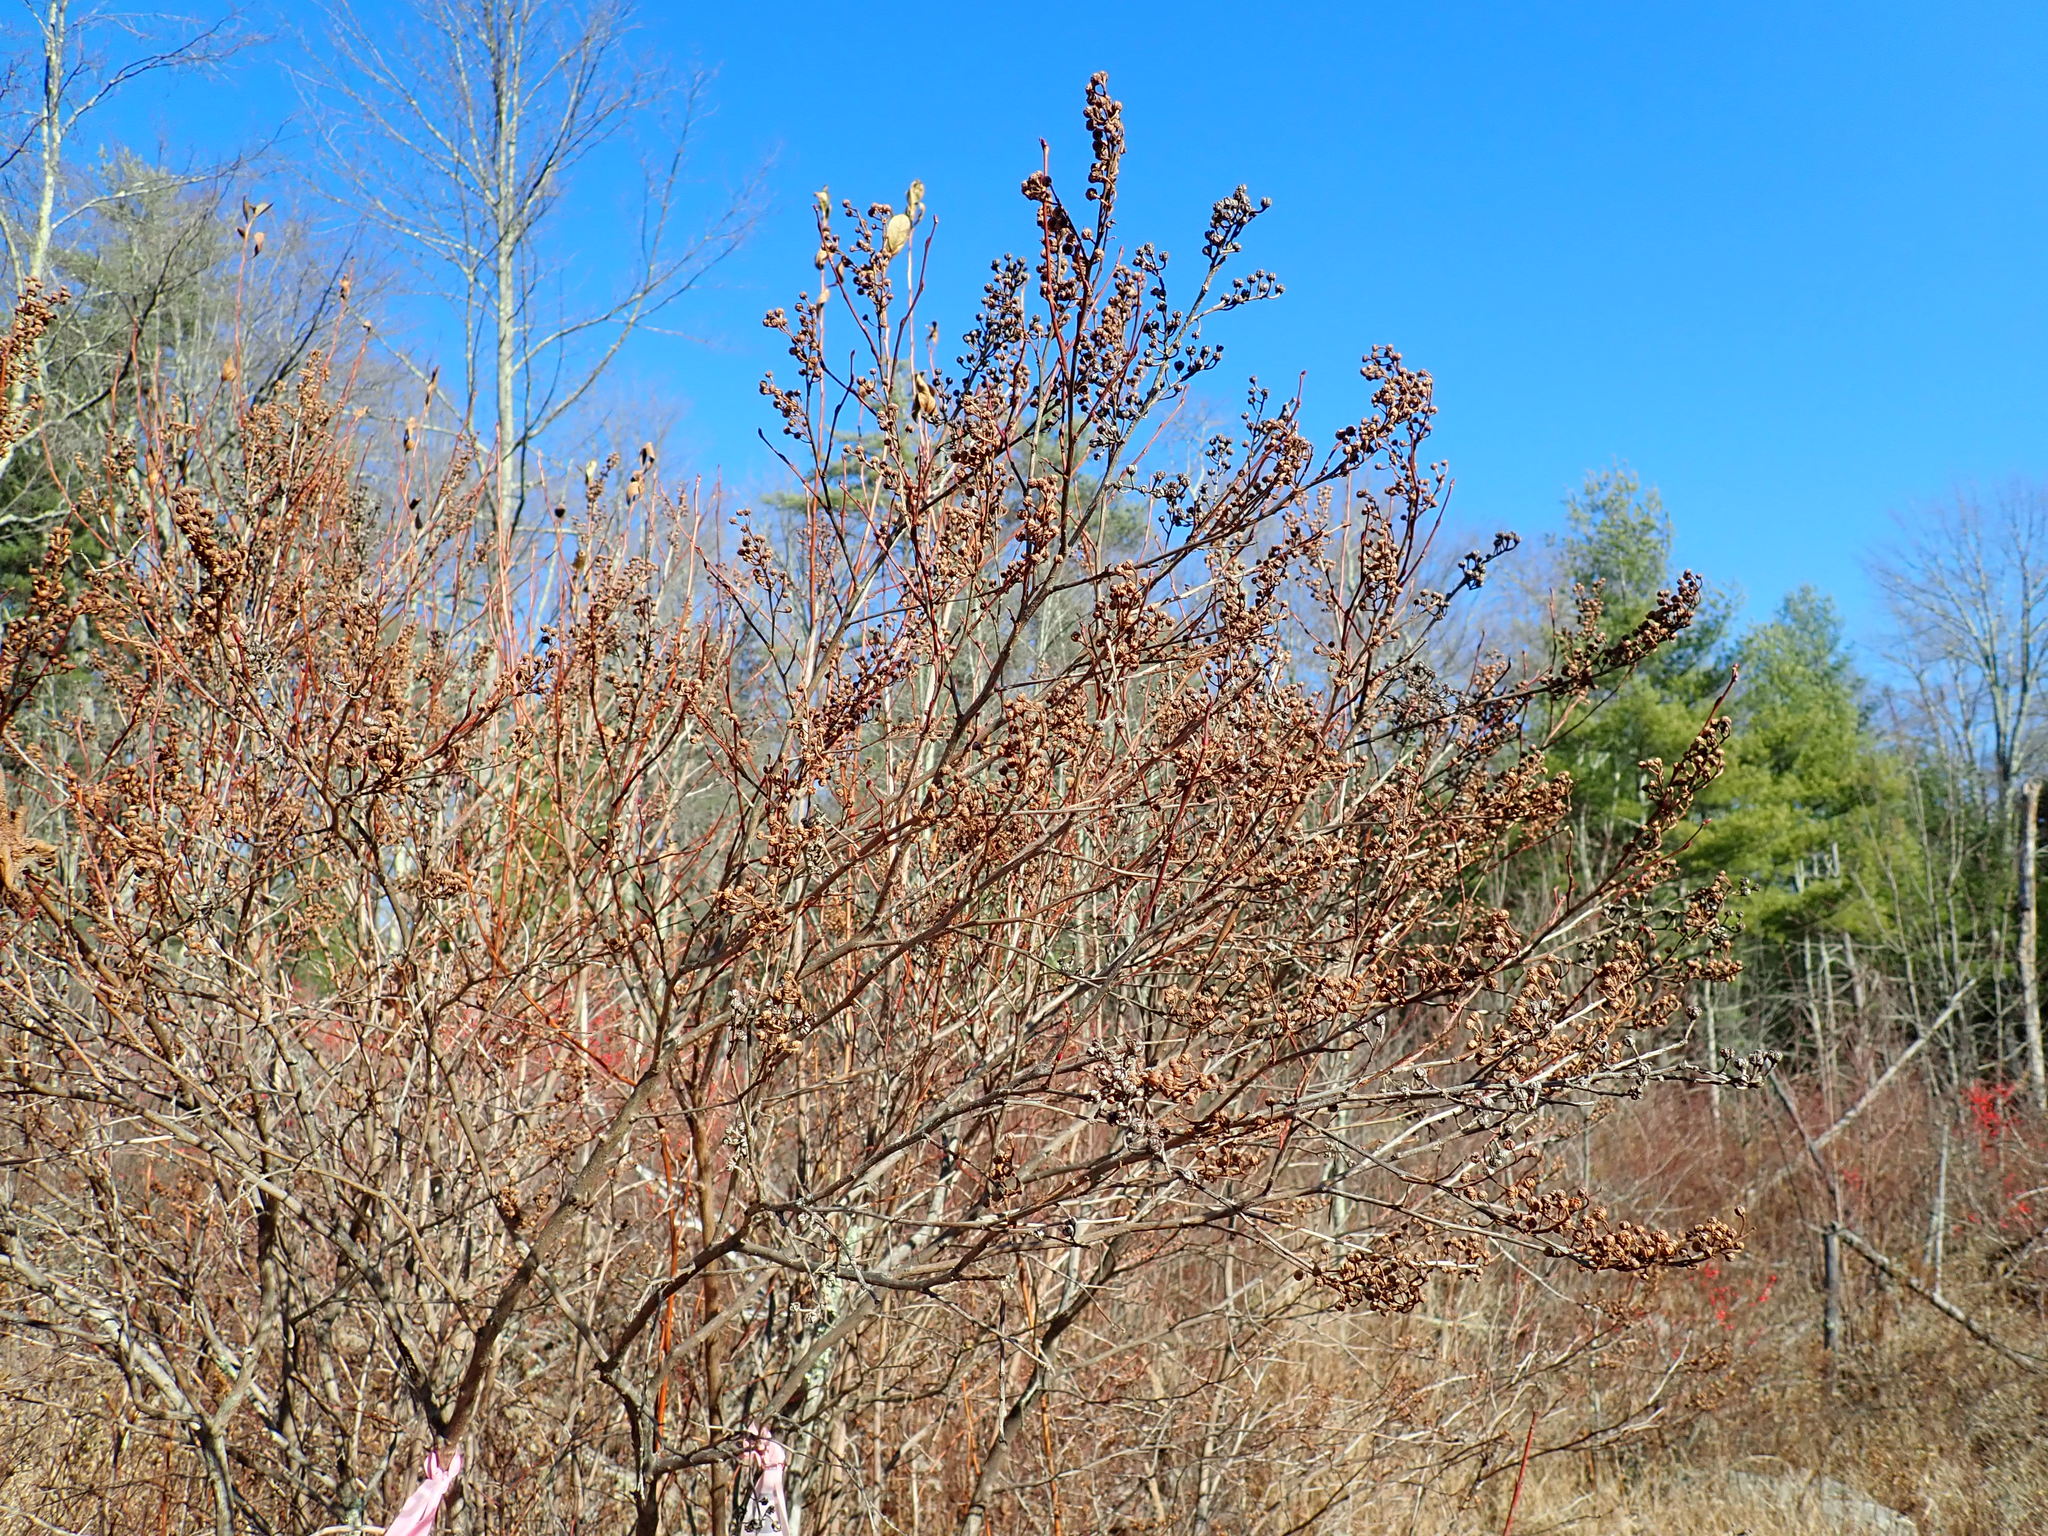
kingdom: Plantae
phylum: Tracheophyta
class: Magnoliopsida
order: Ericales
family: Ericaceae
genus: Lyonia
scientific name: Lyonia ligustrina
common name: Maleberry
